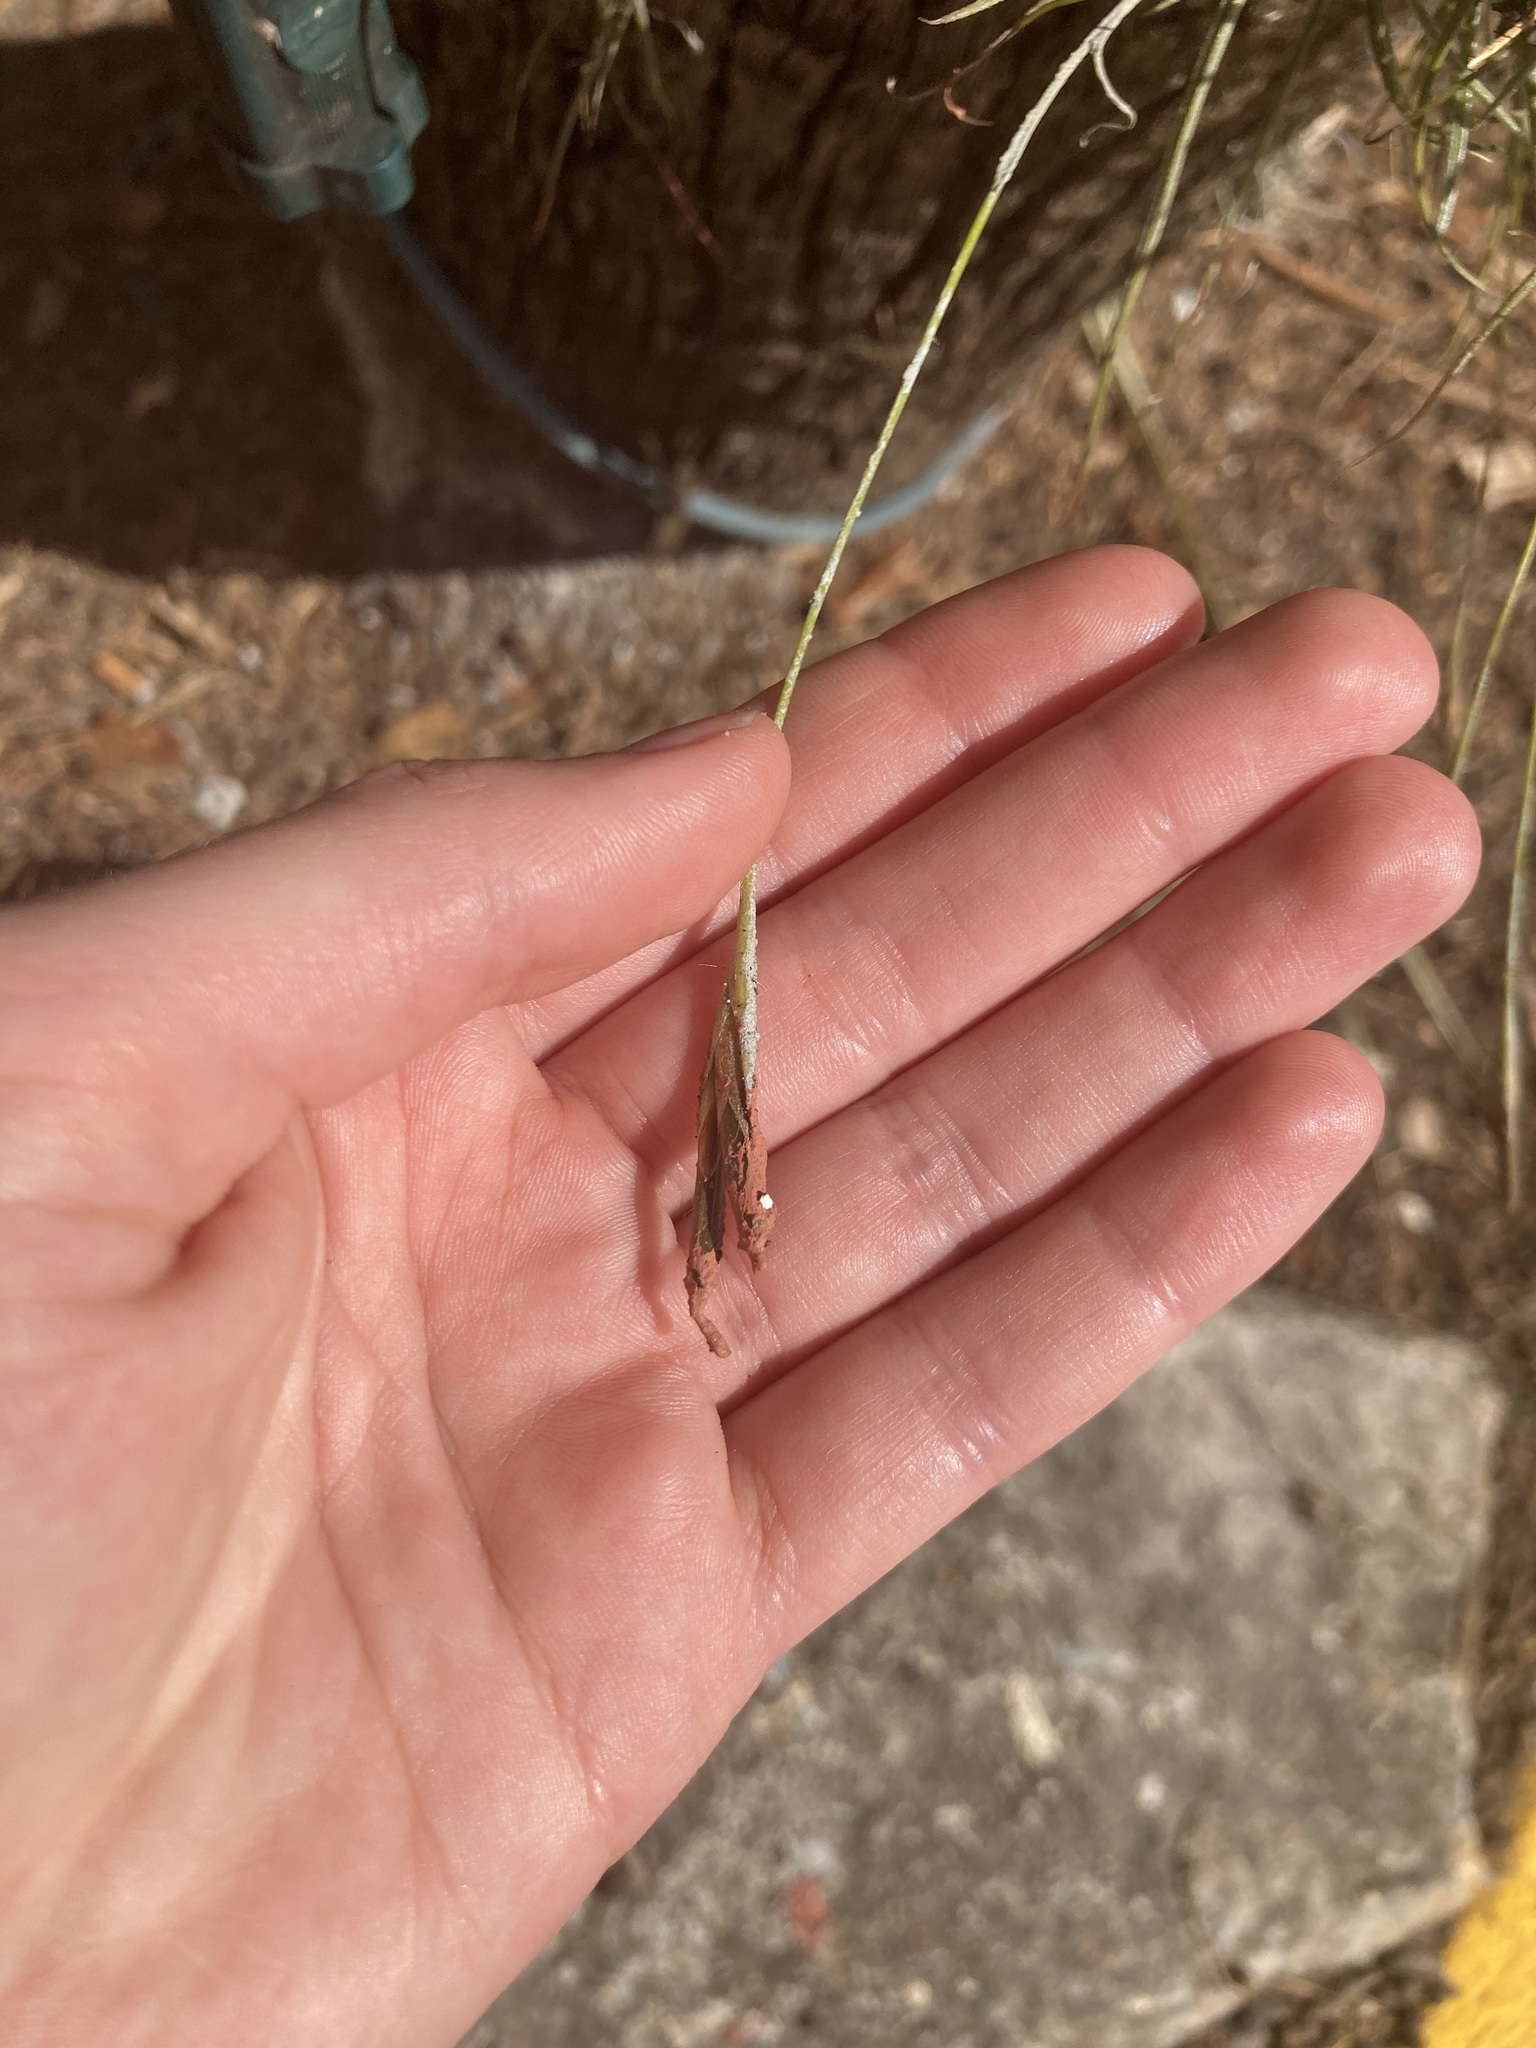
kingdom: Plantae
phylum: Tracheophyta
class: Liliopsida
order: Poales
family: Bromeliaceae
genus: Tillandsia
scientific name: Tillandsia recurvata
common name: Small ballmoss
